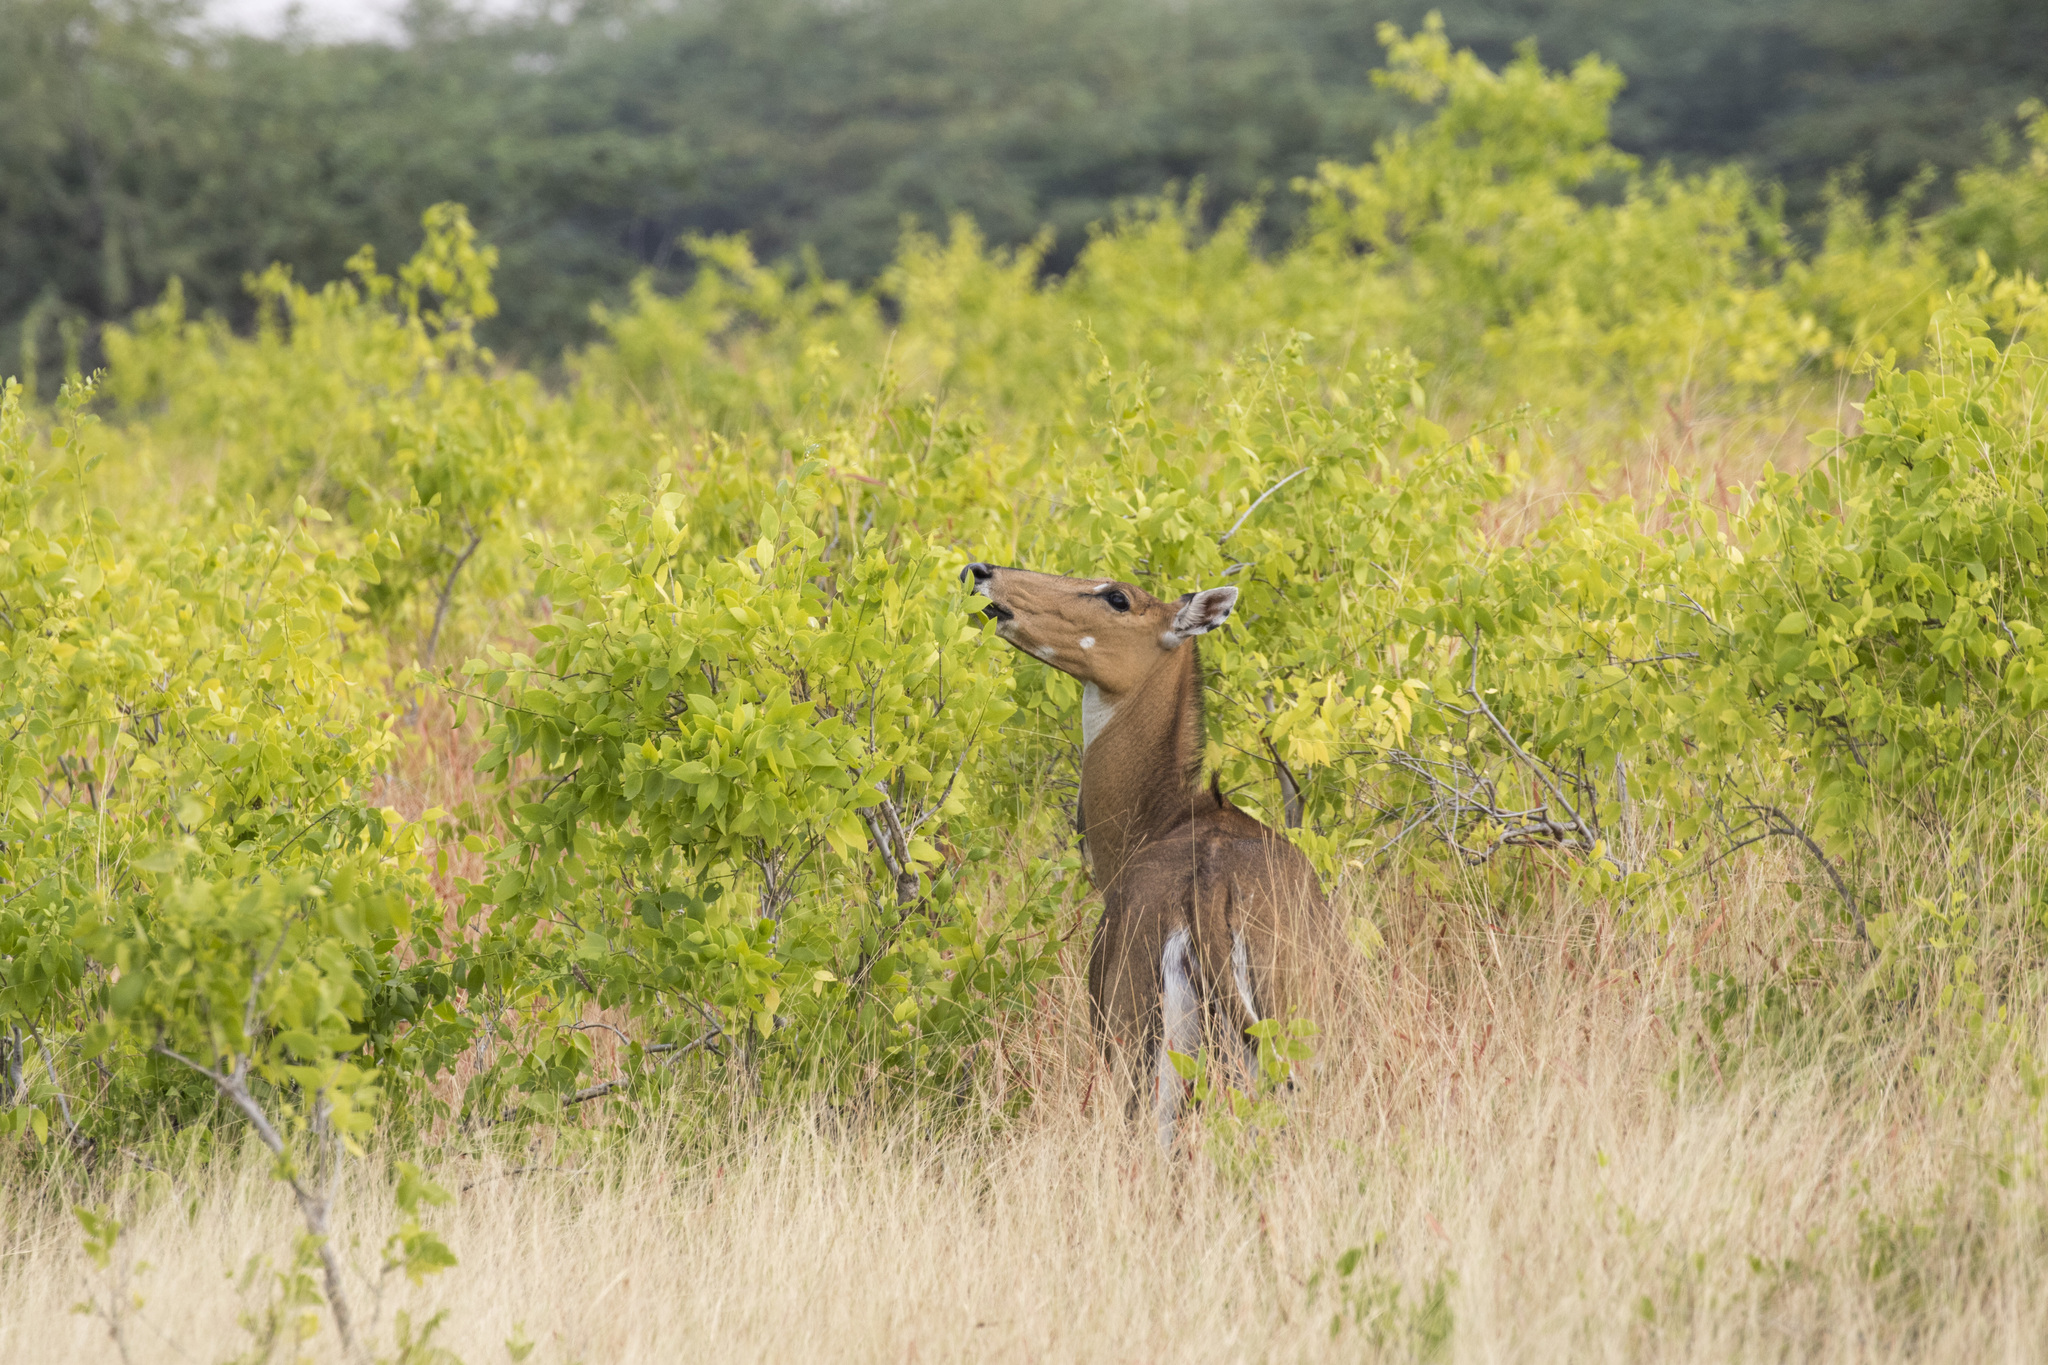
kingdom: Animalia
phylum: Chordata
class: Mammalia
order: Artiodactyla
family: Bovidae
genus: Boselaphus
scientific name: Boselaphus tragocamelus
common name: Nilgai
